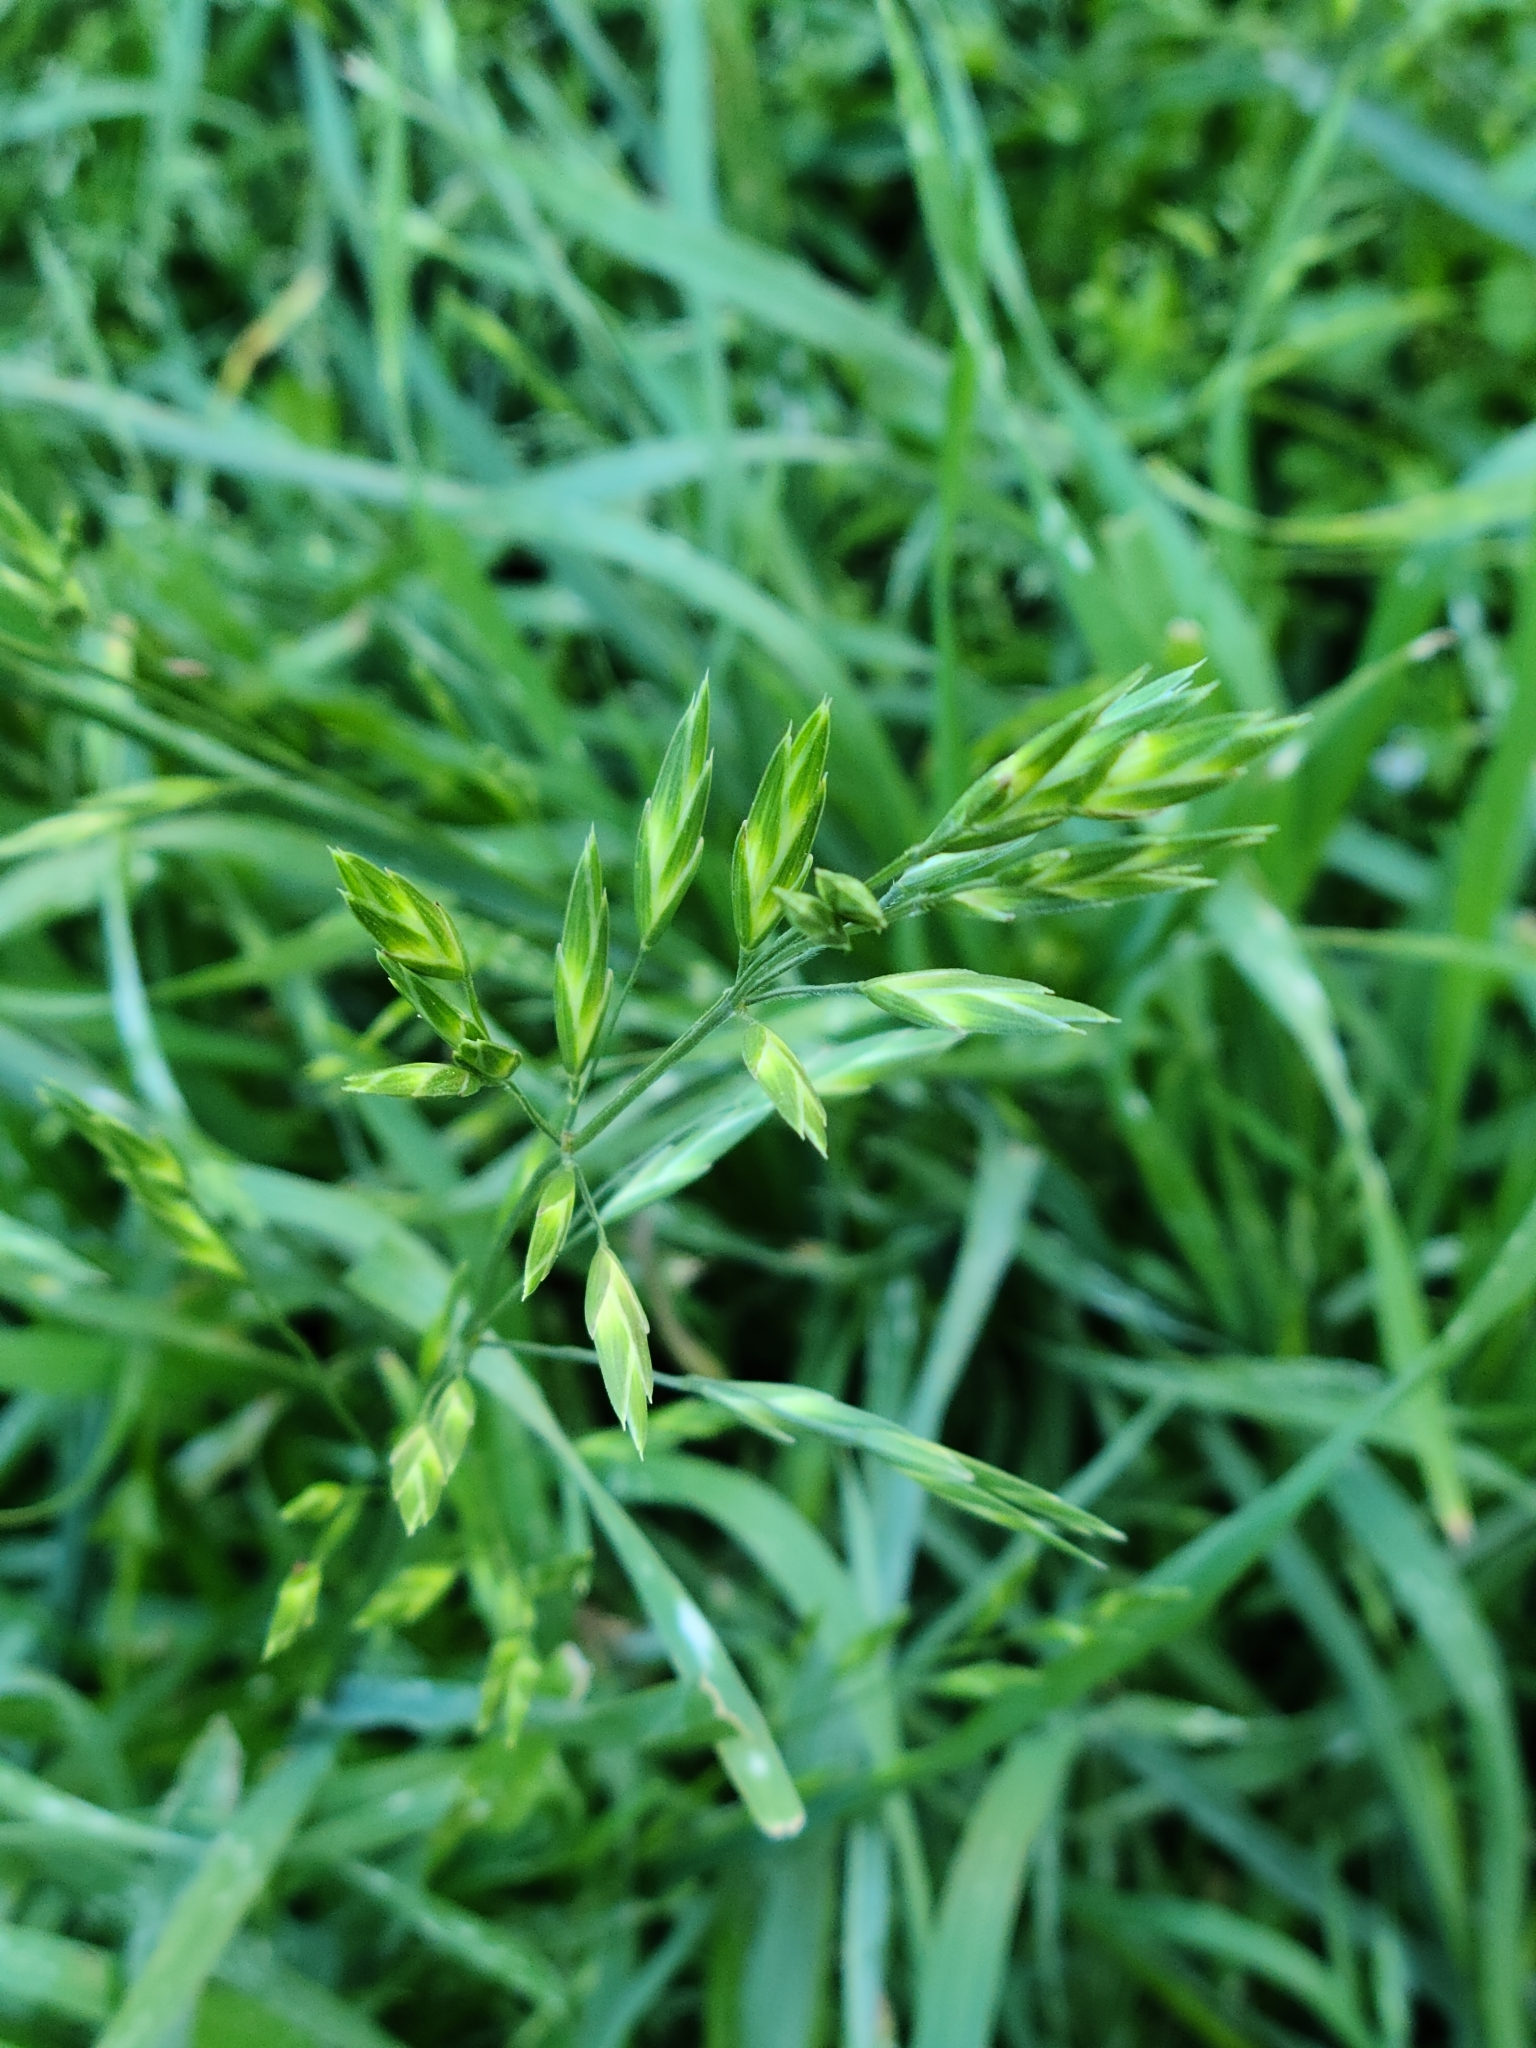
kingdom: Plantae
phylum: Tracheophyta
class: Liliopsida
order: Poales
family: Poaceae
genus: Bromus
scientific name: Bromus catharticus
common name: Rescuegrass
